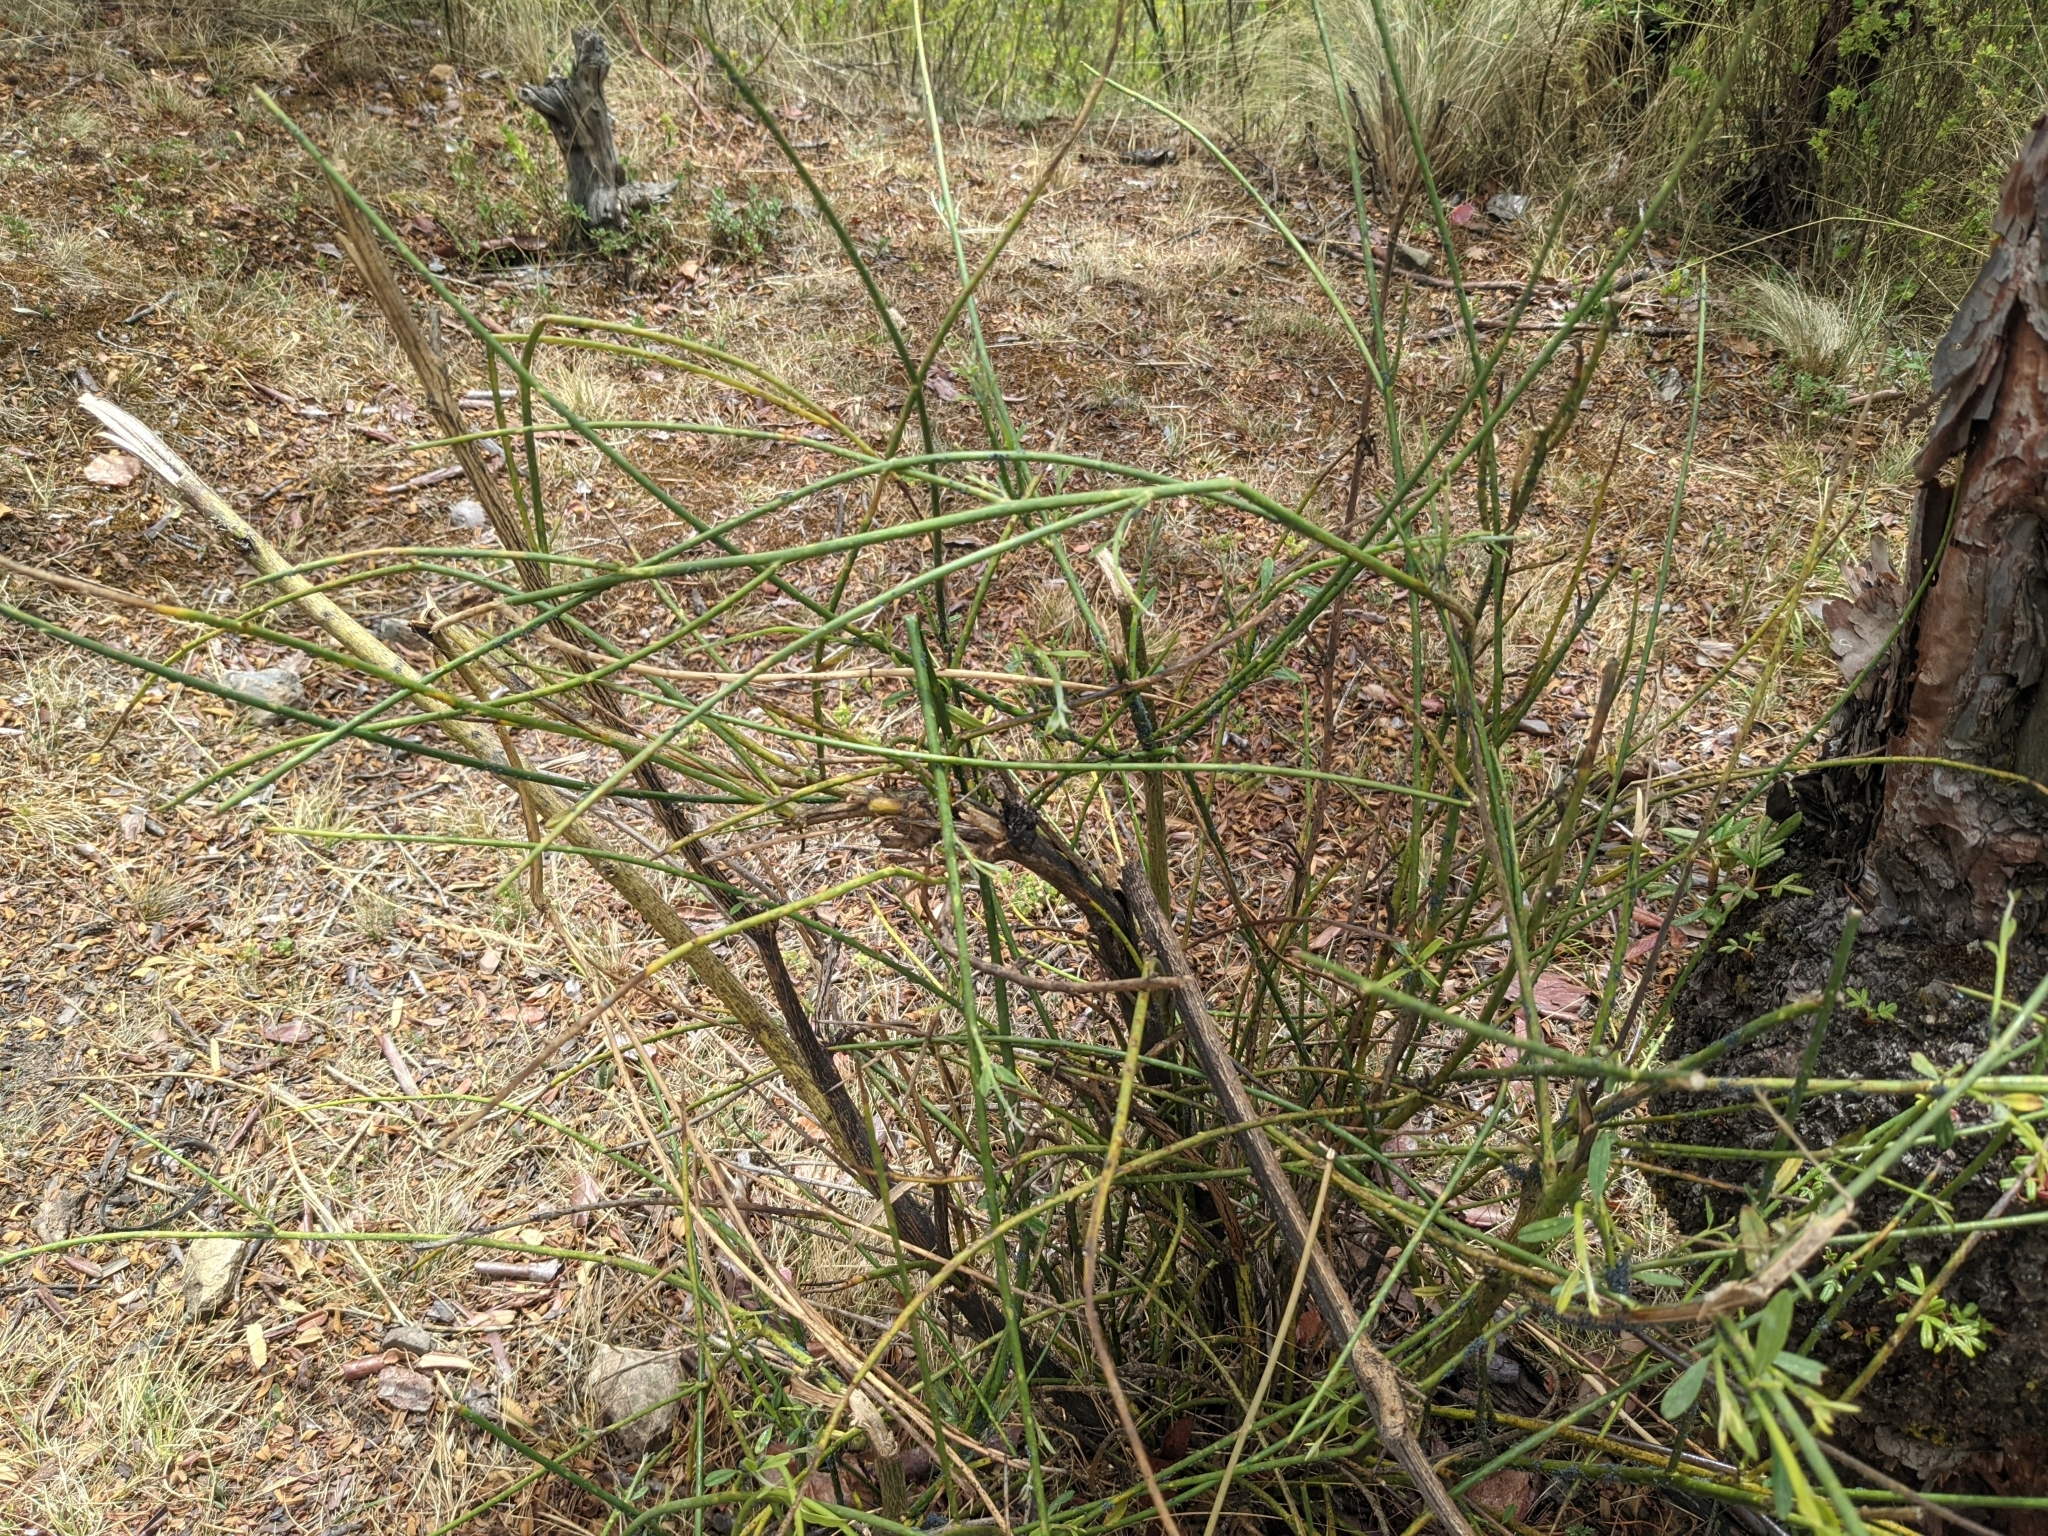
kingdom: Plantae
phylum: Tracheophyta
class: Magnoliopsida
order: Fabales
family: Fabaceae
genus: Spartium
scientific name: Spartium junceum
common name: Spanish broom
